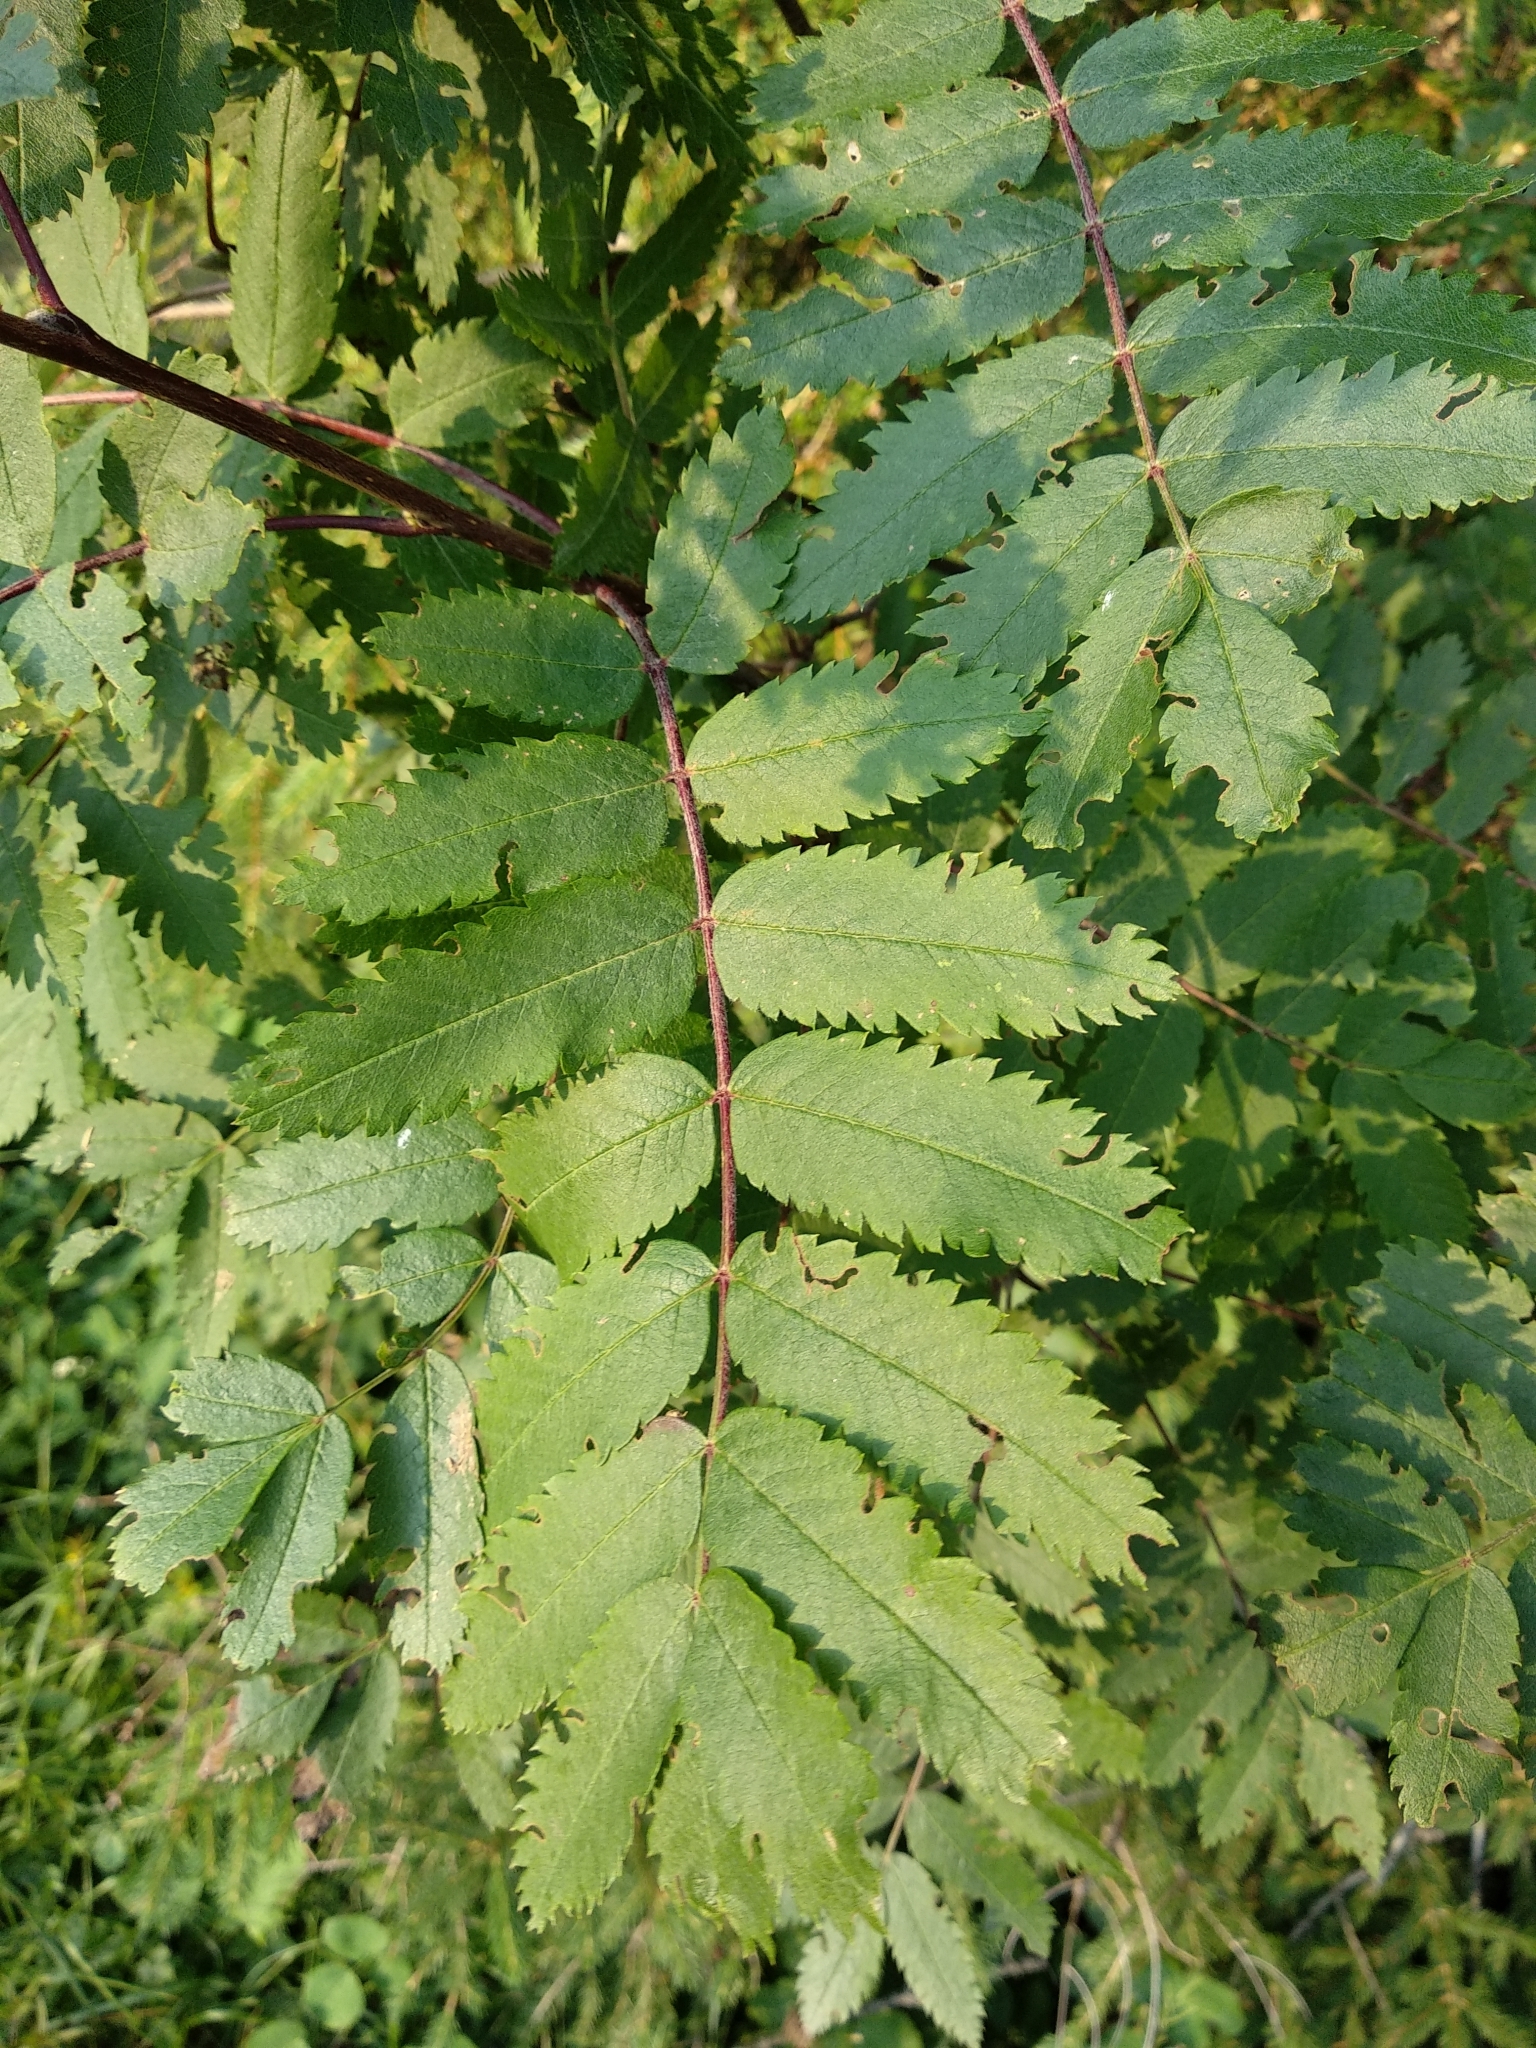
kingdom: Plantae
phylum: Tracheophyta
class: Magnoliopsida
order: Rosales
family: Rosaceae
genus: Sorbus
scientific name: Sorbus aucuparia
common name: Rowan
